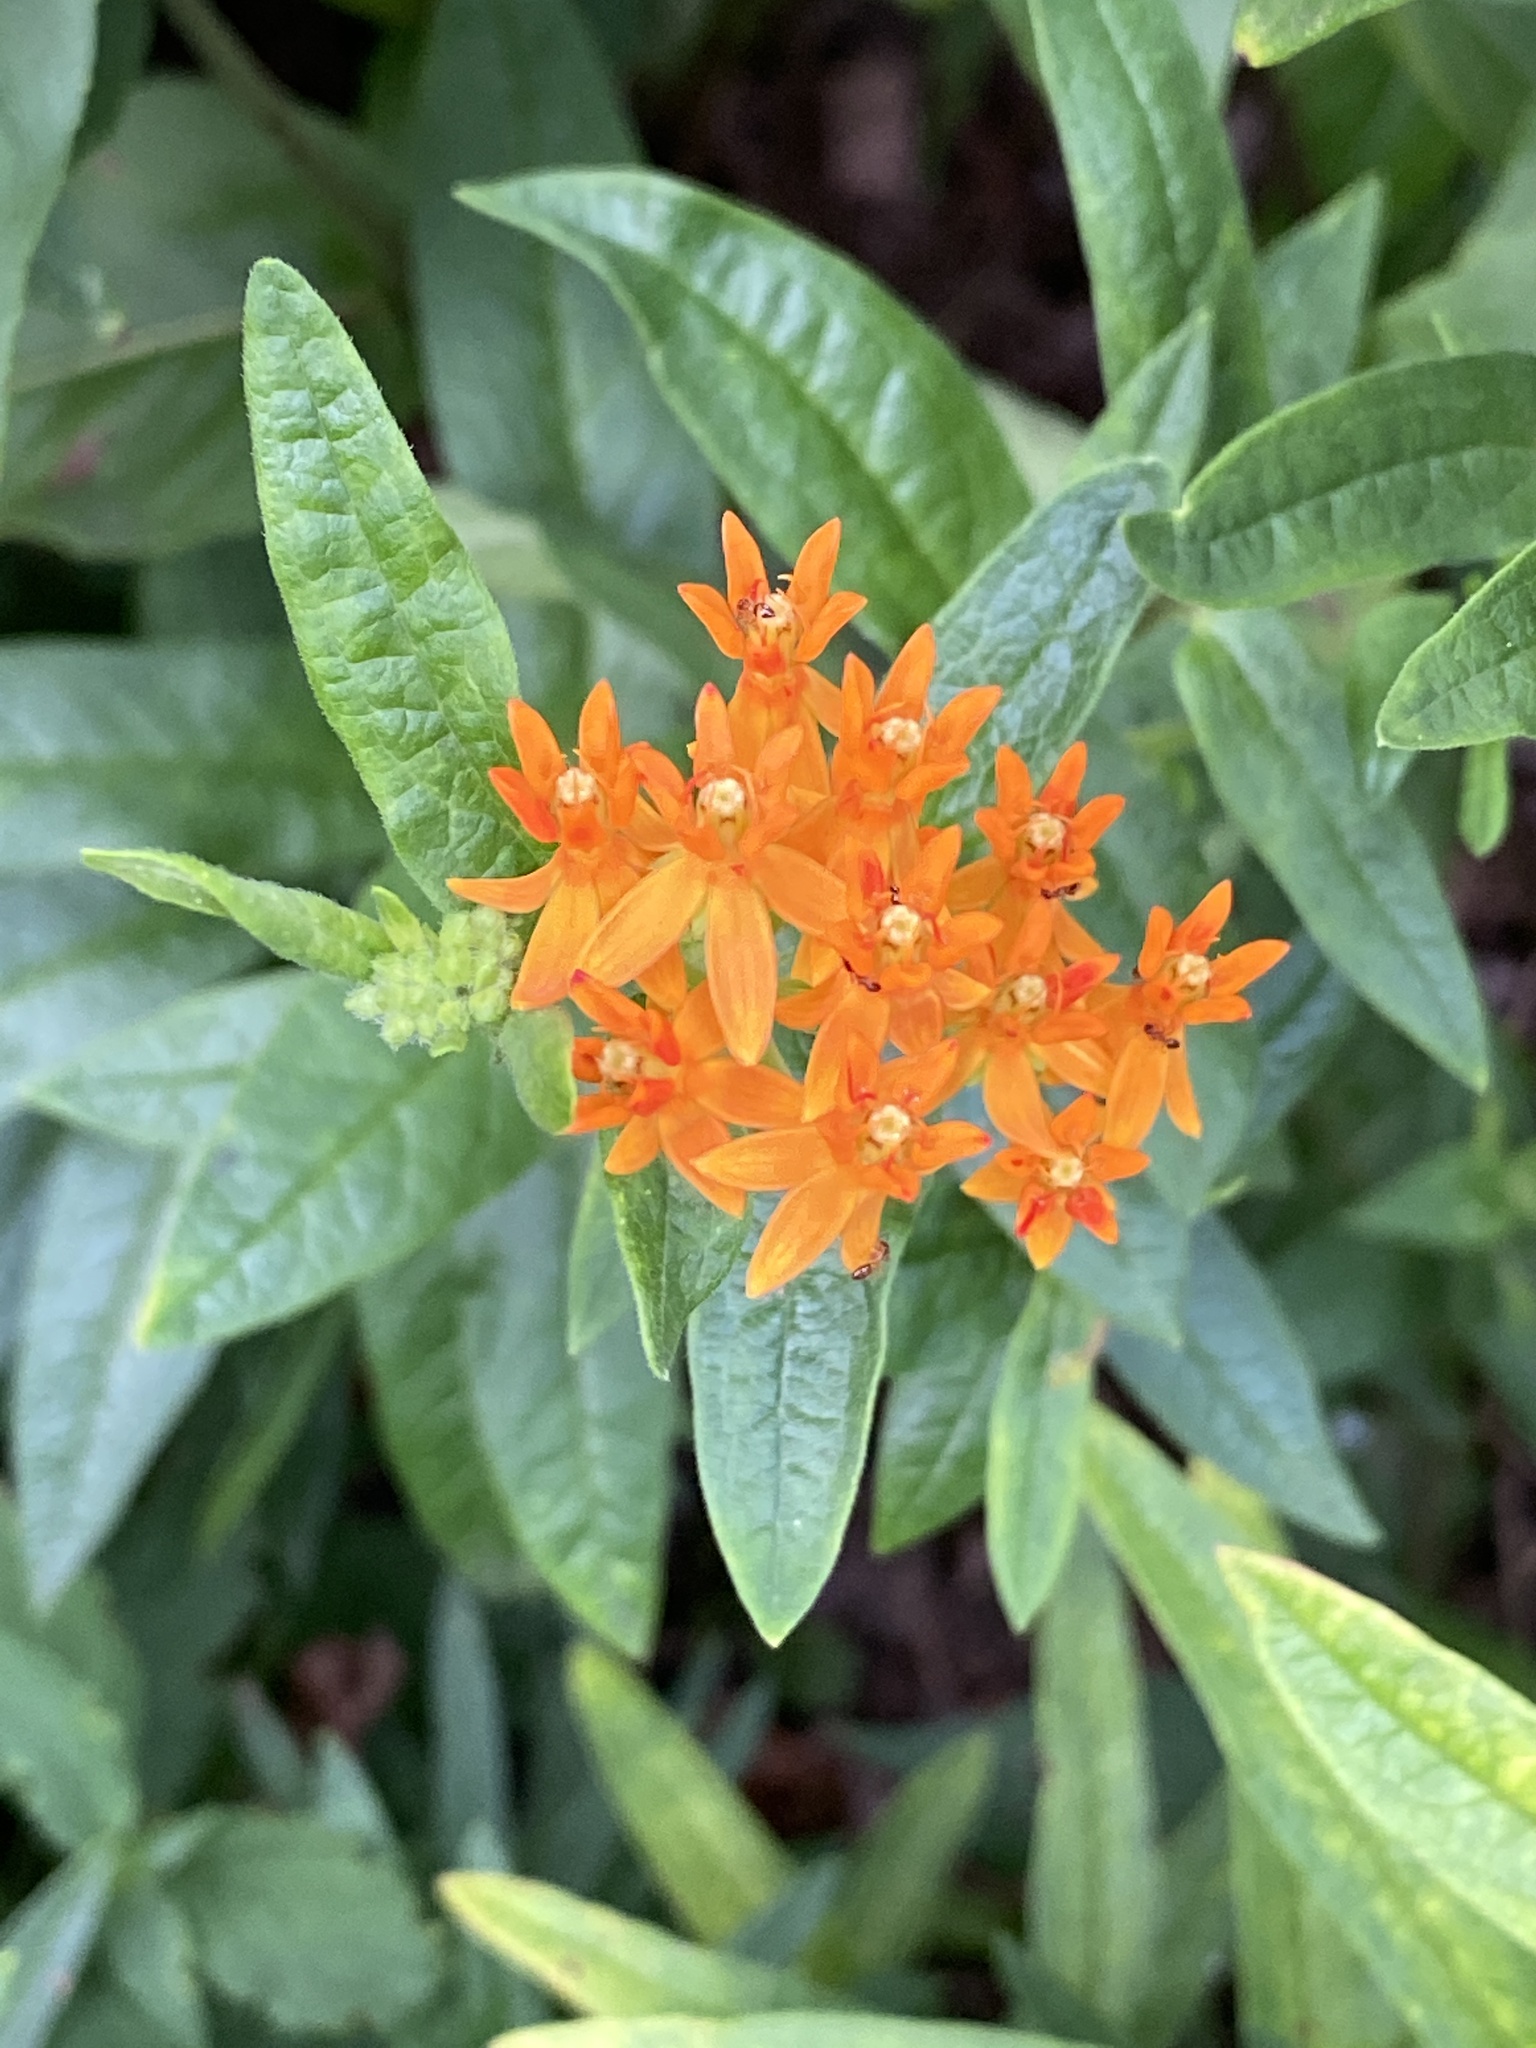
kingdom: Plantae
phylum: Tracheophyta
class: Magnoliopsida
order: Gentianales
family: Apocynaceae
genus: Asclepias
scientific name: Asclepias tuberosa
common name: Butterfly milkweed
